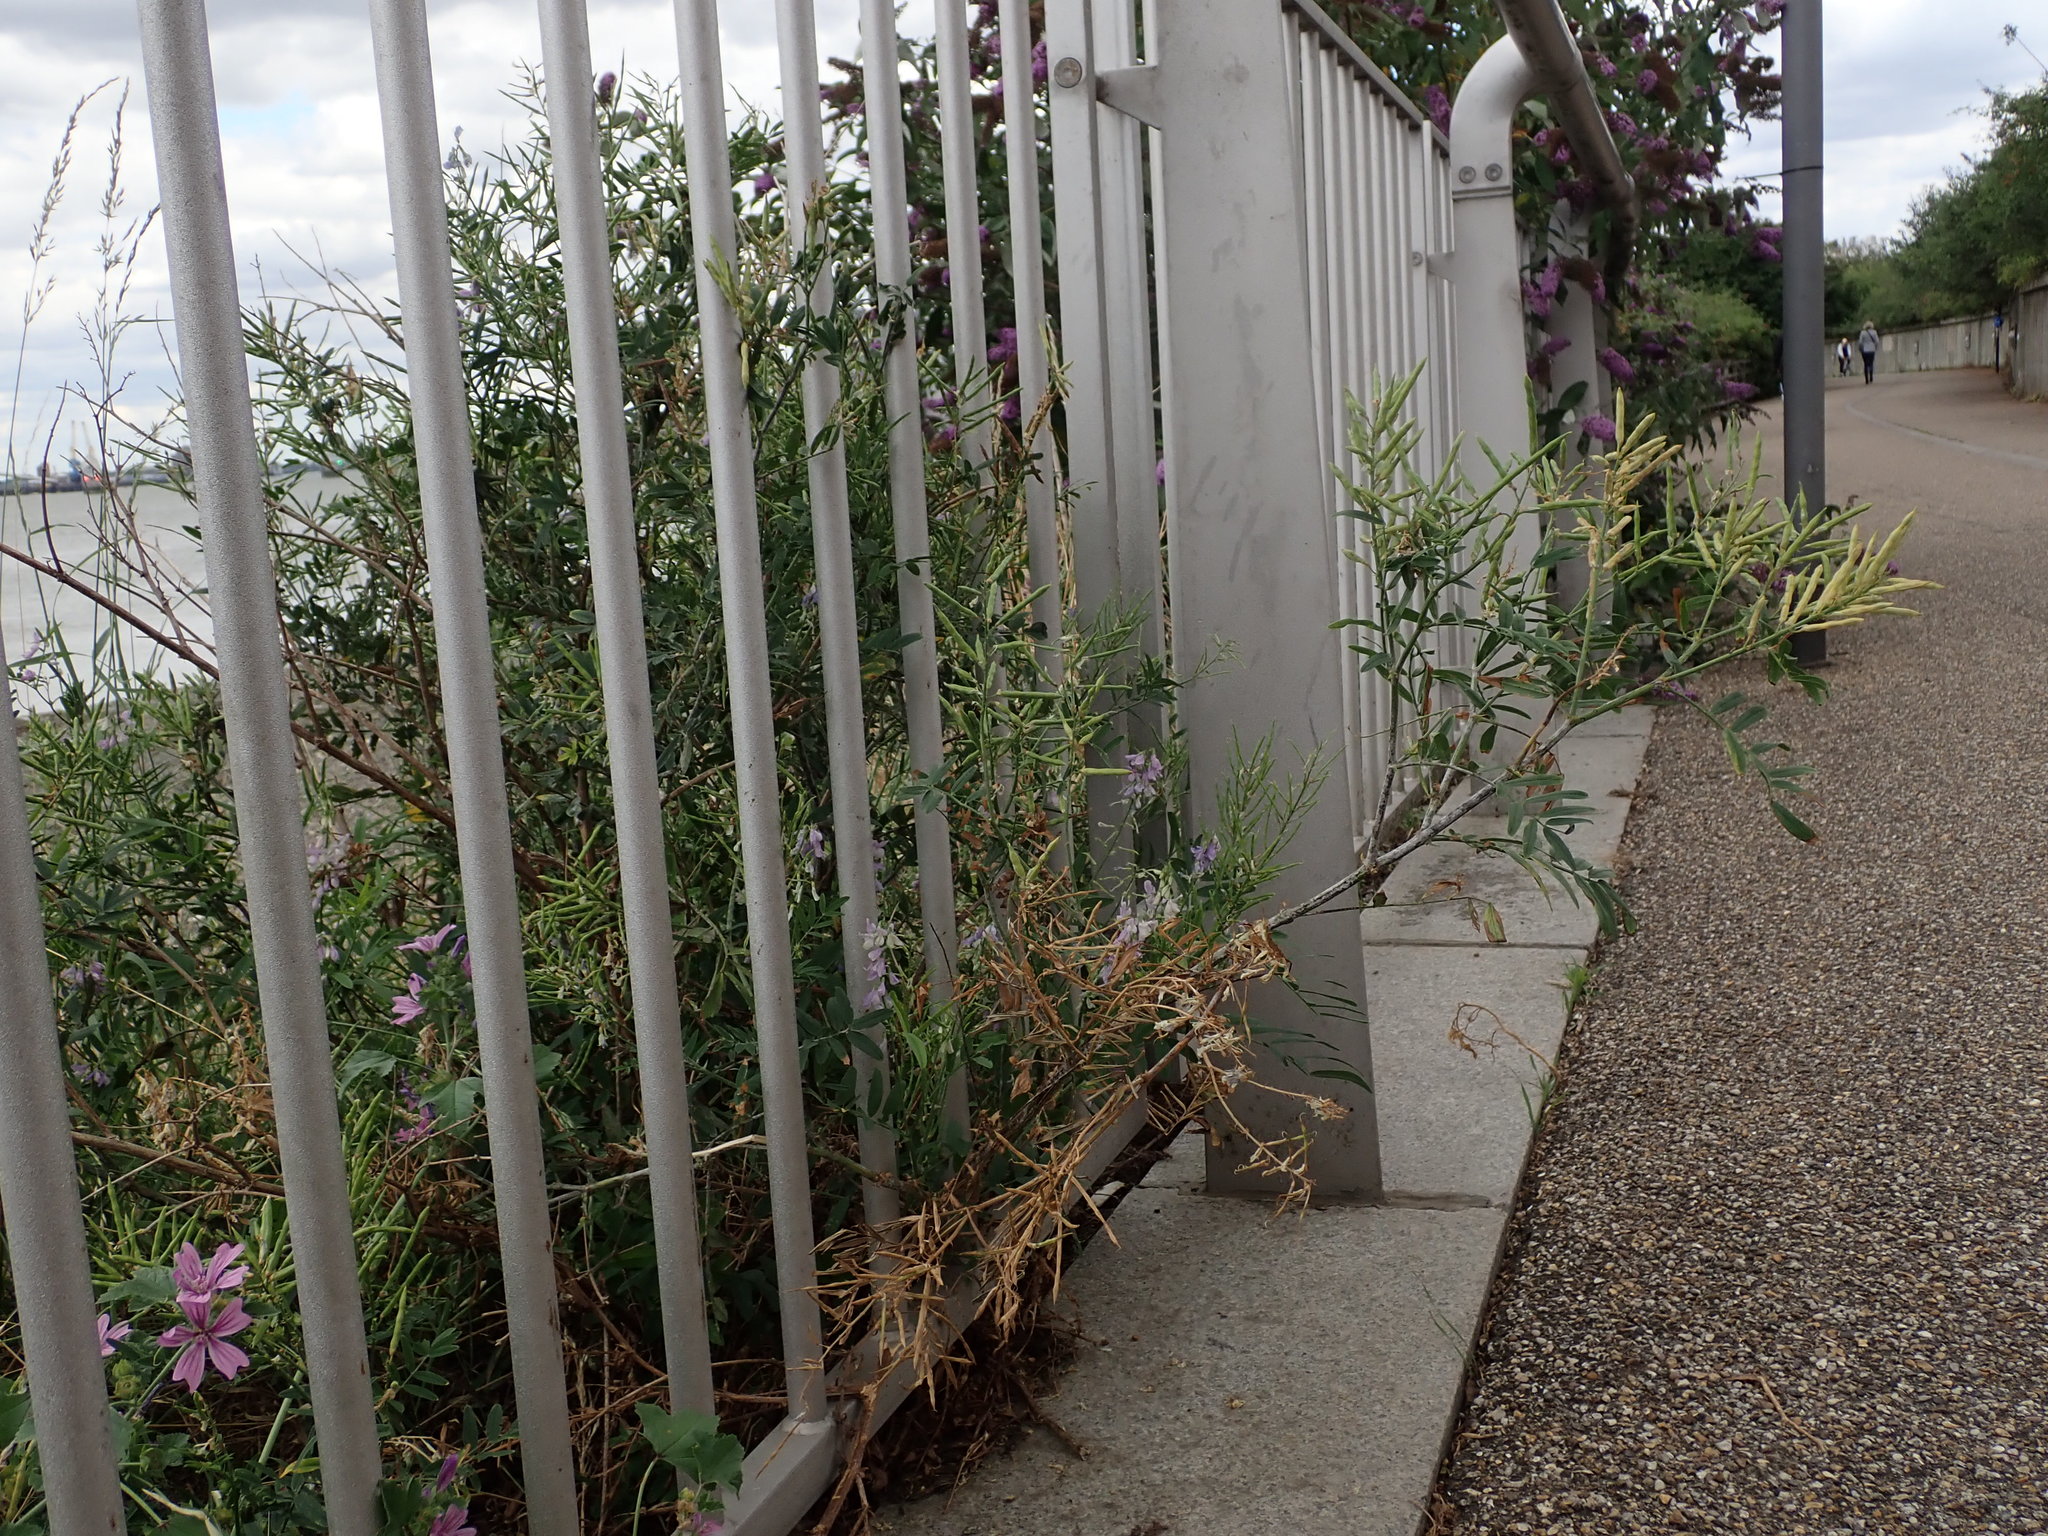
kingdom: Plantae
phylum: Tracheophyta
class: Magnoliopsida
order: Fabales
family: Fabaceae
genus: Galega
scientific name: Galega officinalis
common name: Goat's-rue
